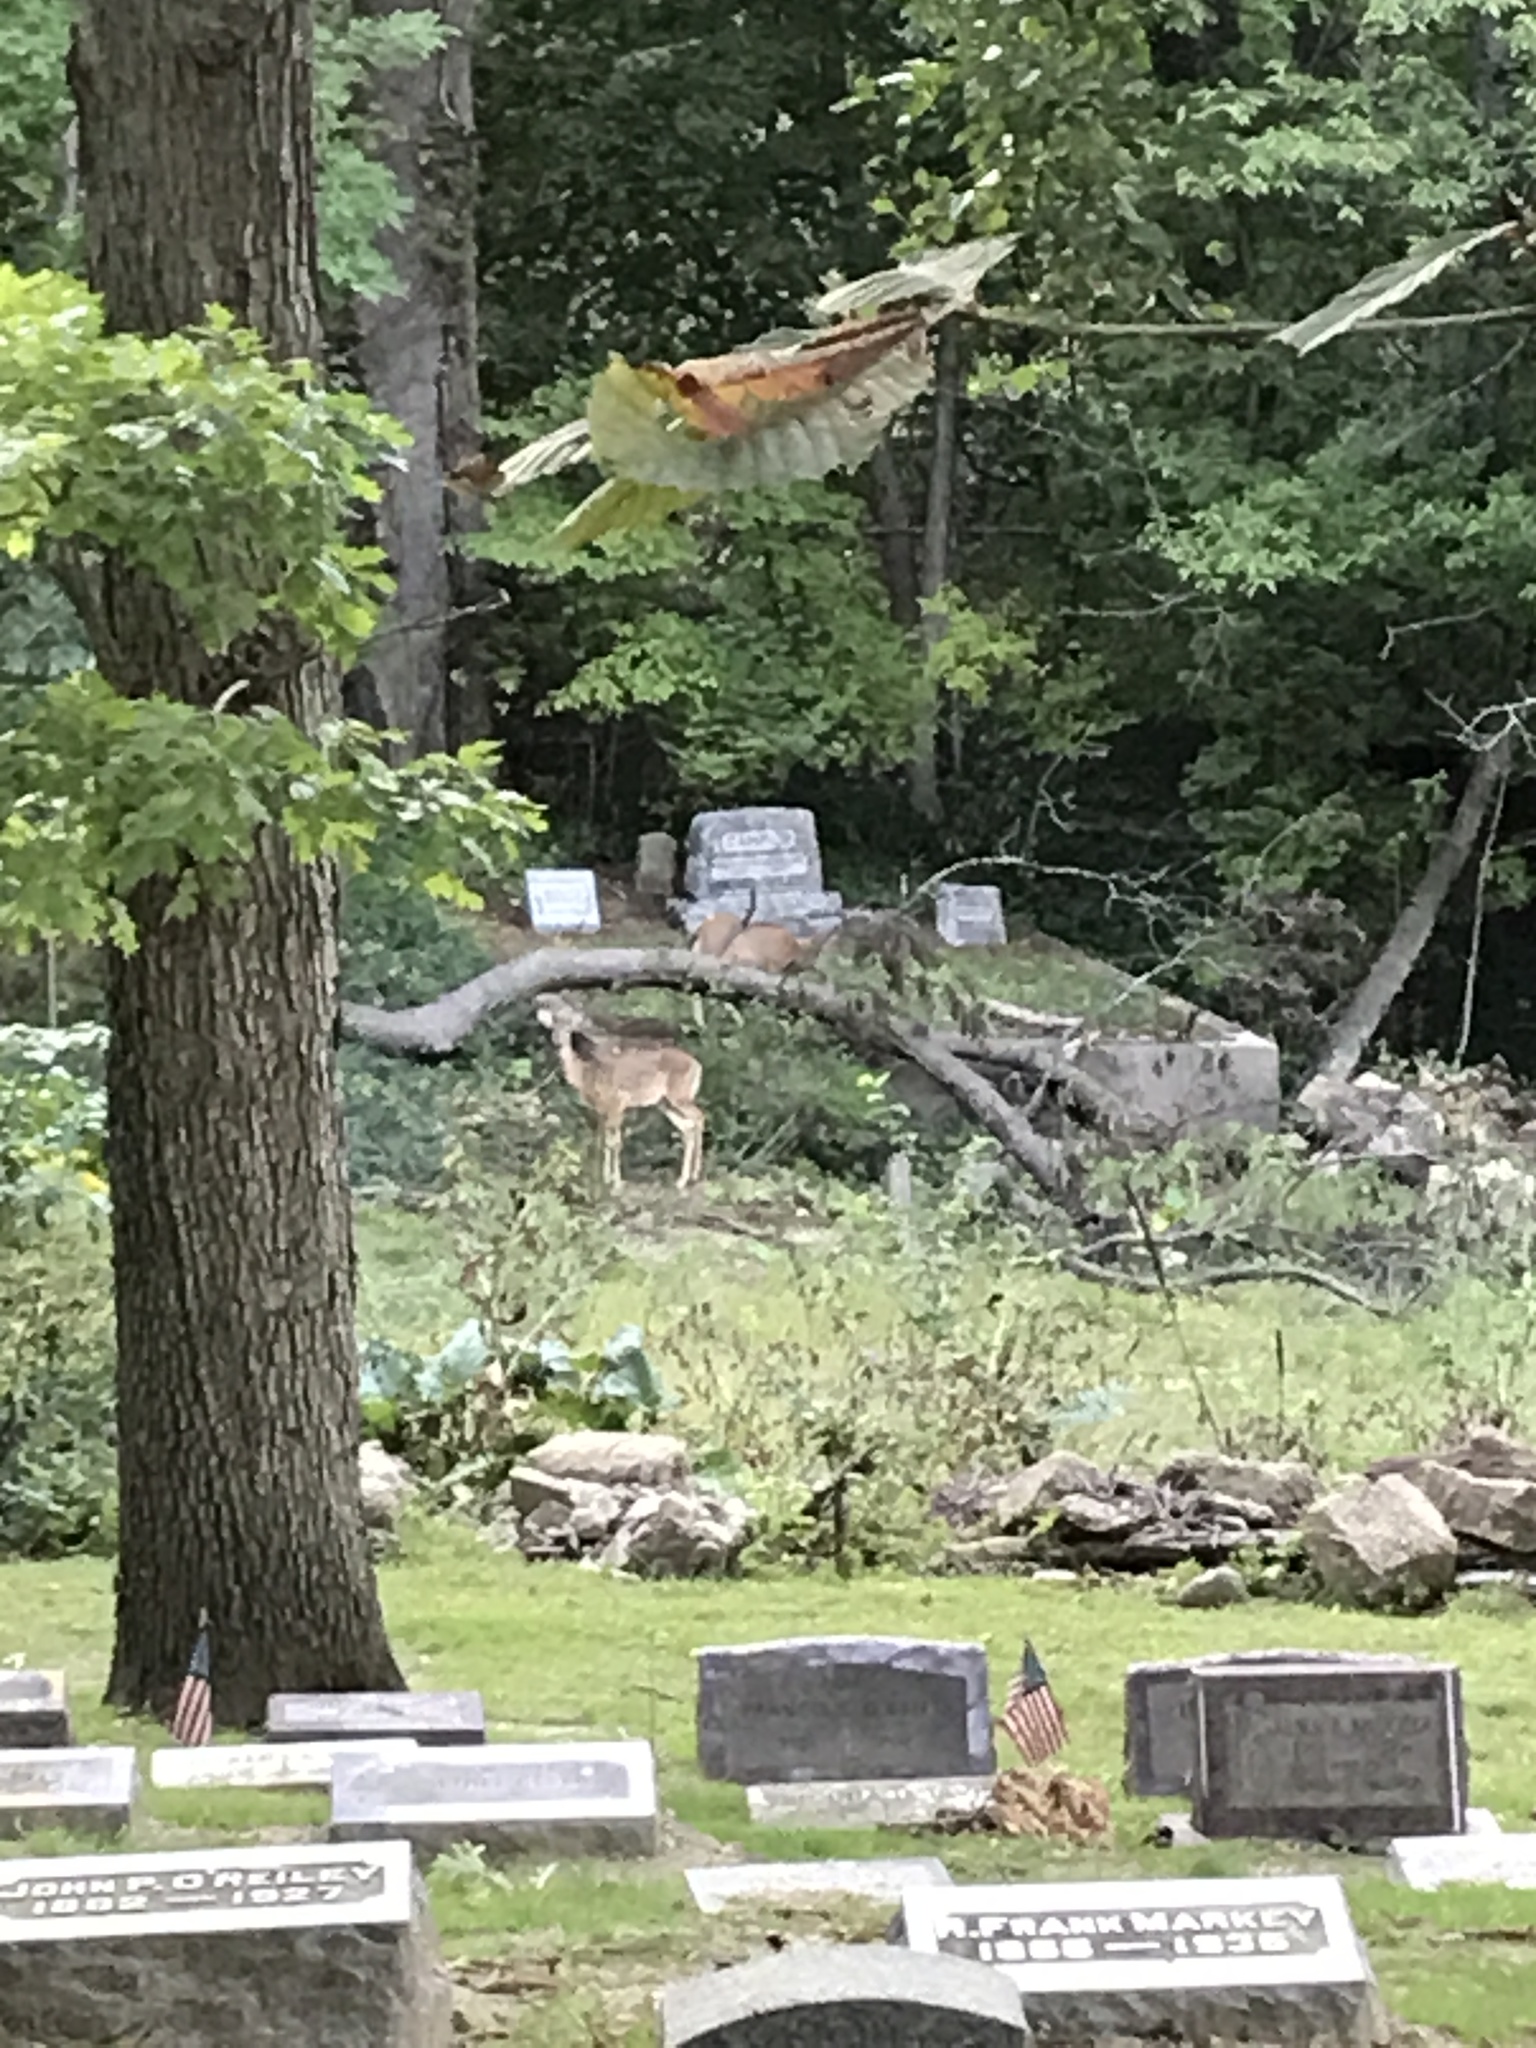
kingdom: Animalia
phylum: Chordata
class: Mammalia
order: Artiodactyla
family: Cervidae
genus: Odocoileus
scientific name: Odocoileus virginianus
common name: White-tailed deer
